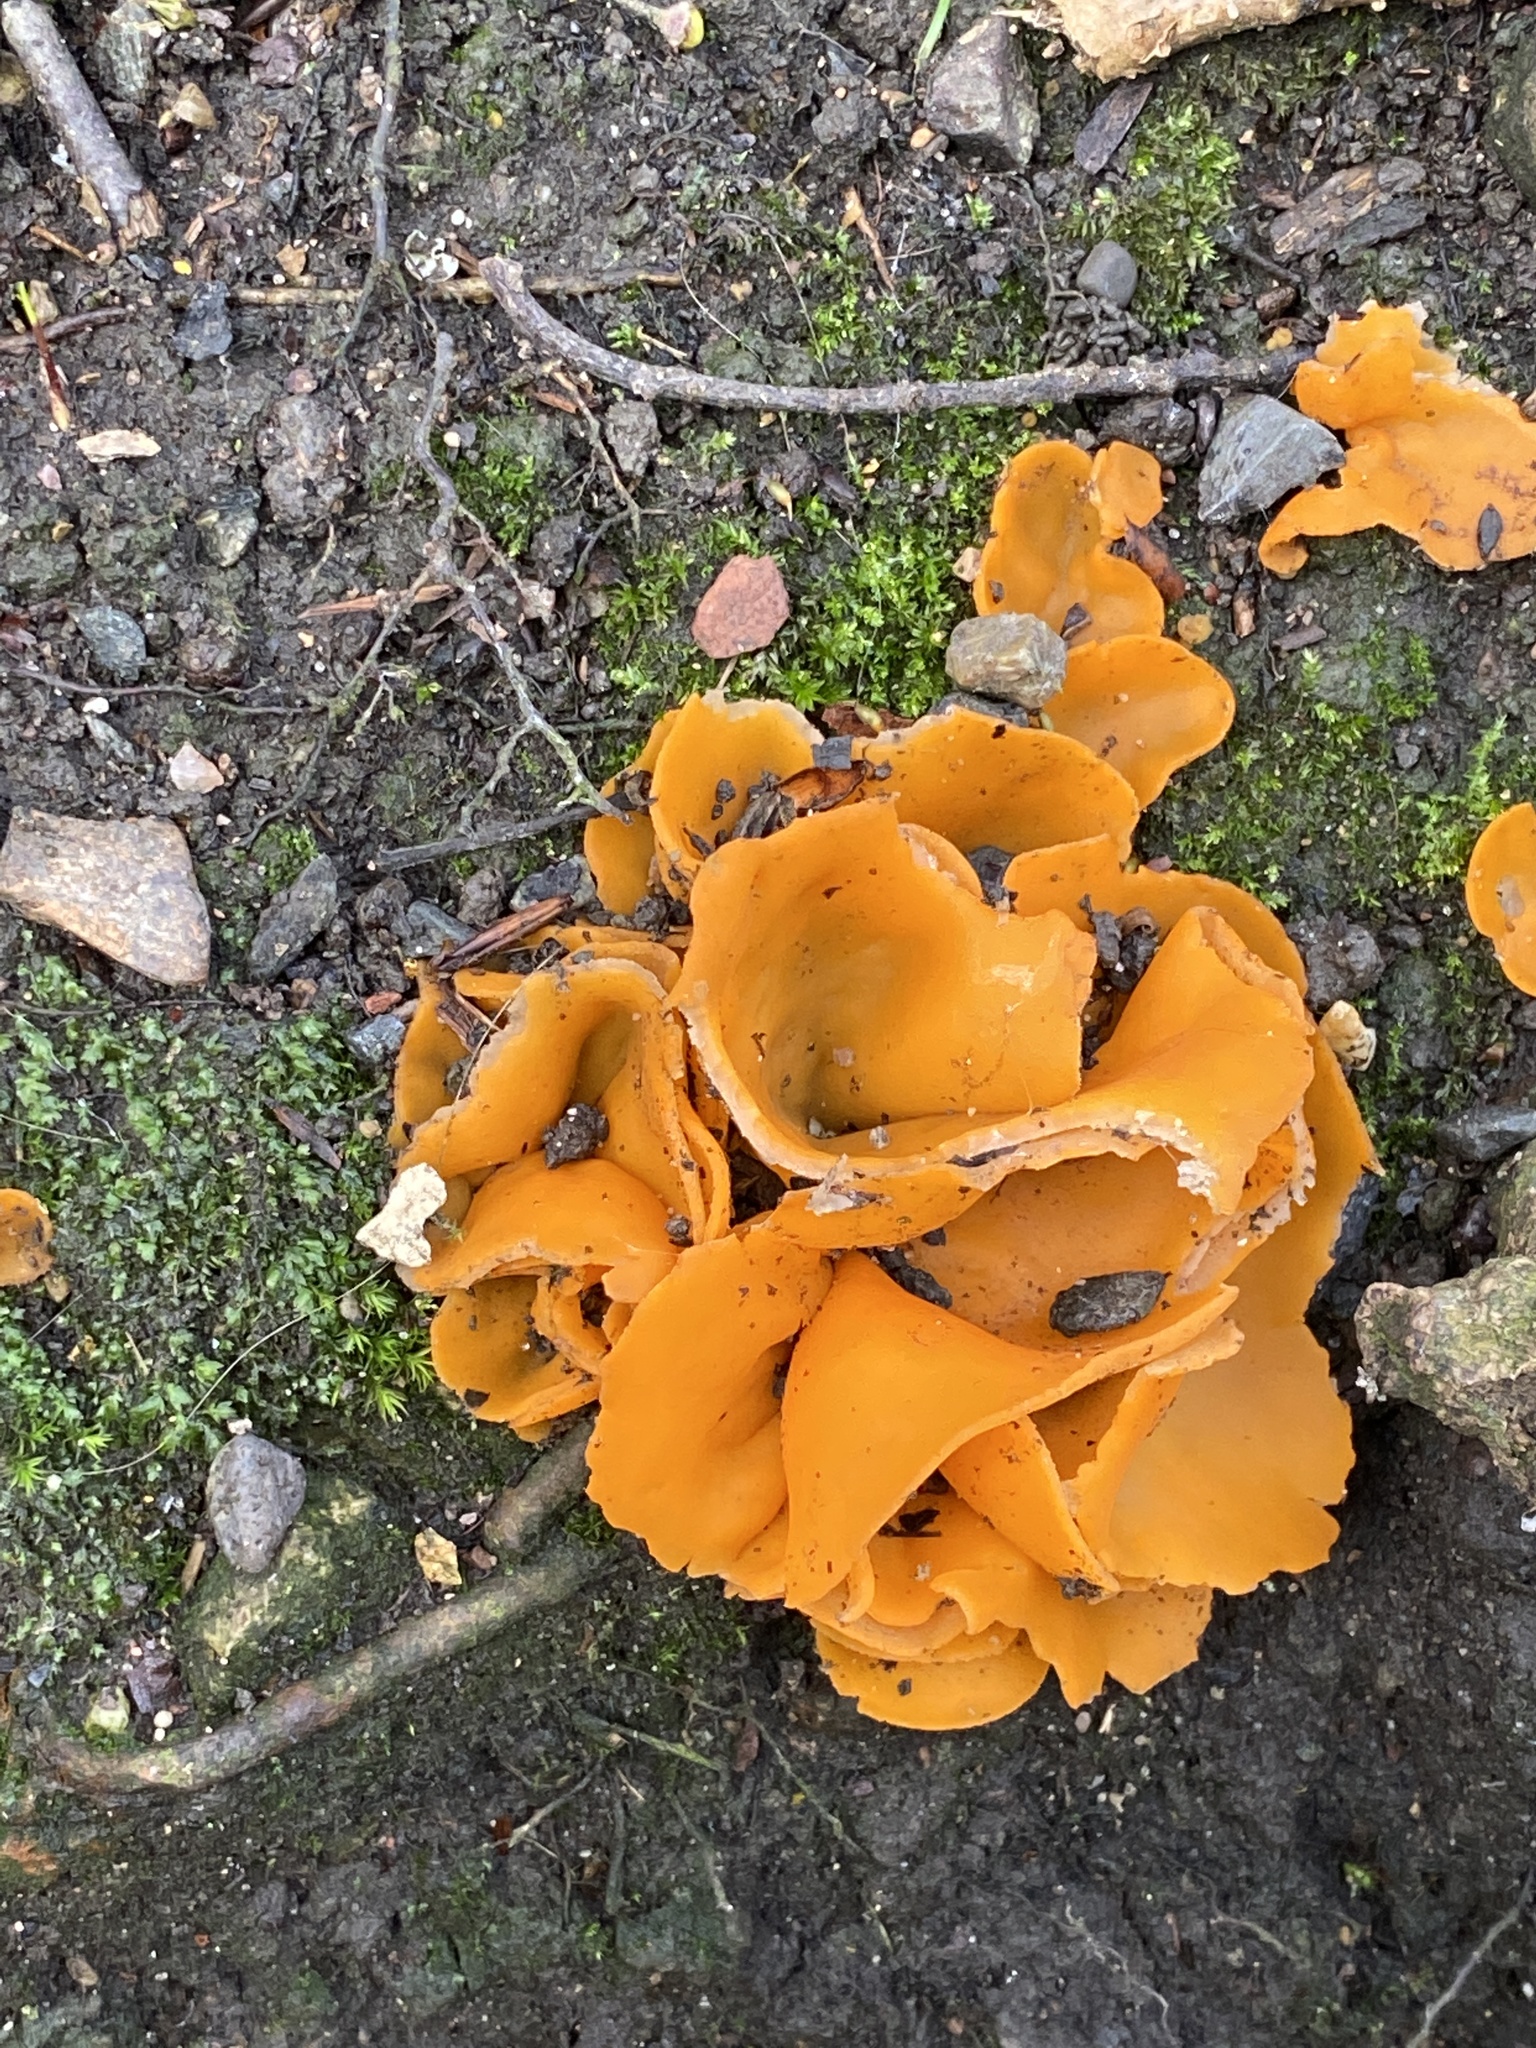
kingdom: Fungi
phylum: Ascomycota
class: Pezizomycetes
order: Pezizales
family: Pyronemataceae
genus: Aleuria
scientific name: Aleuria aurantia
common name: Orange peel fungus
